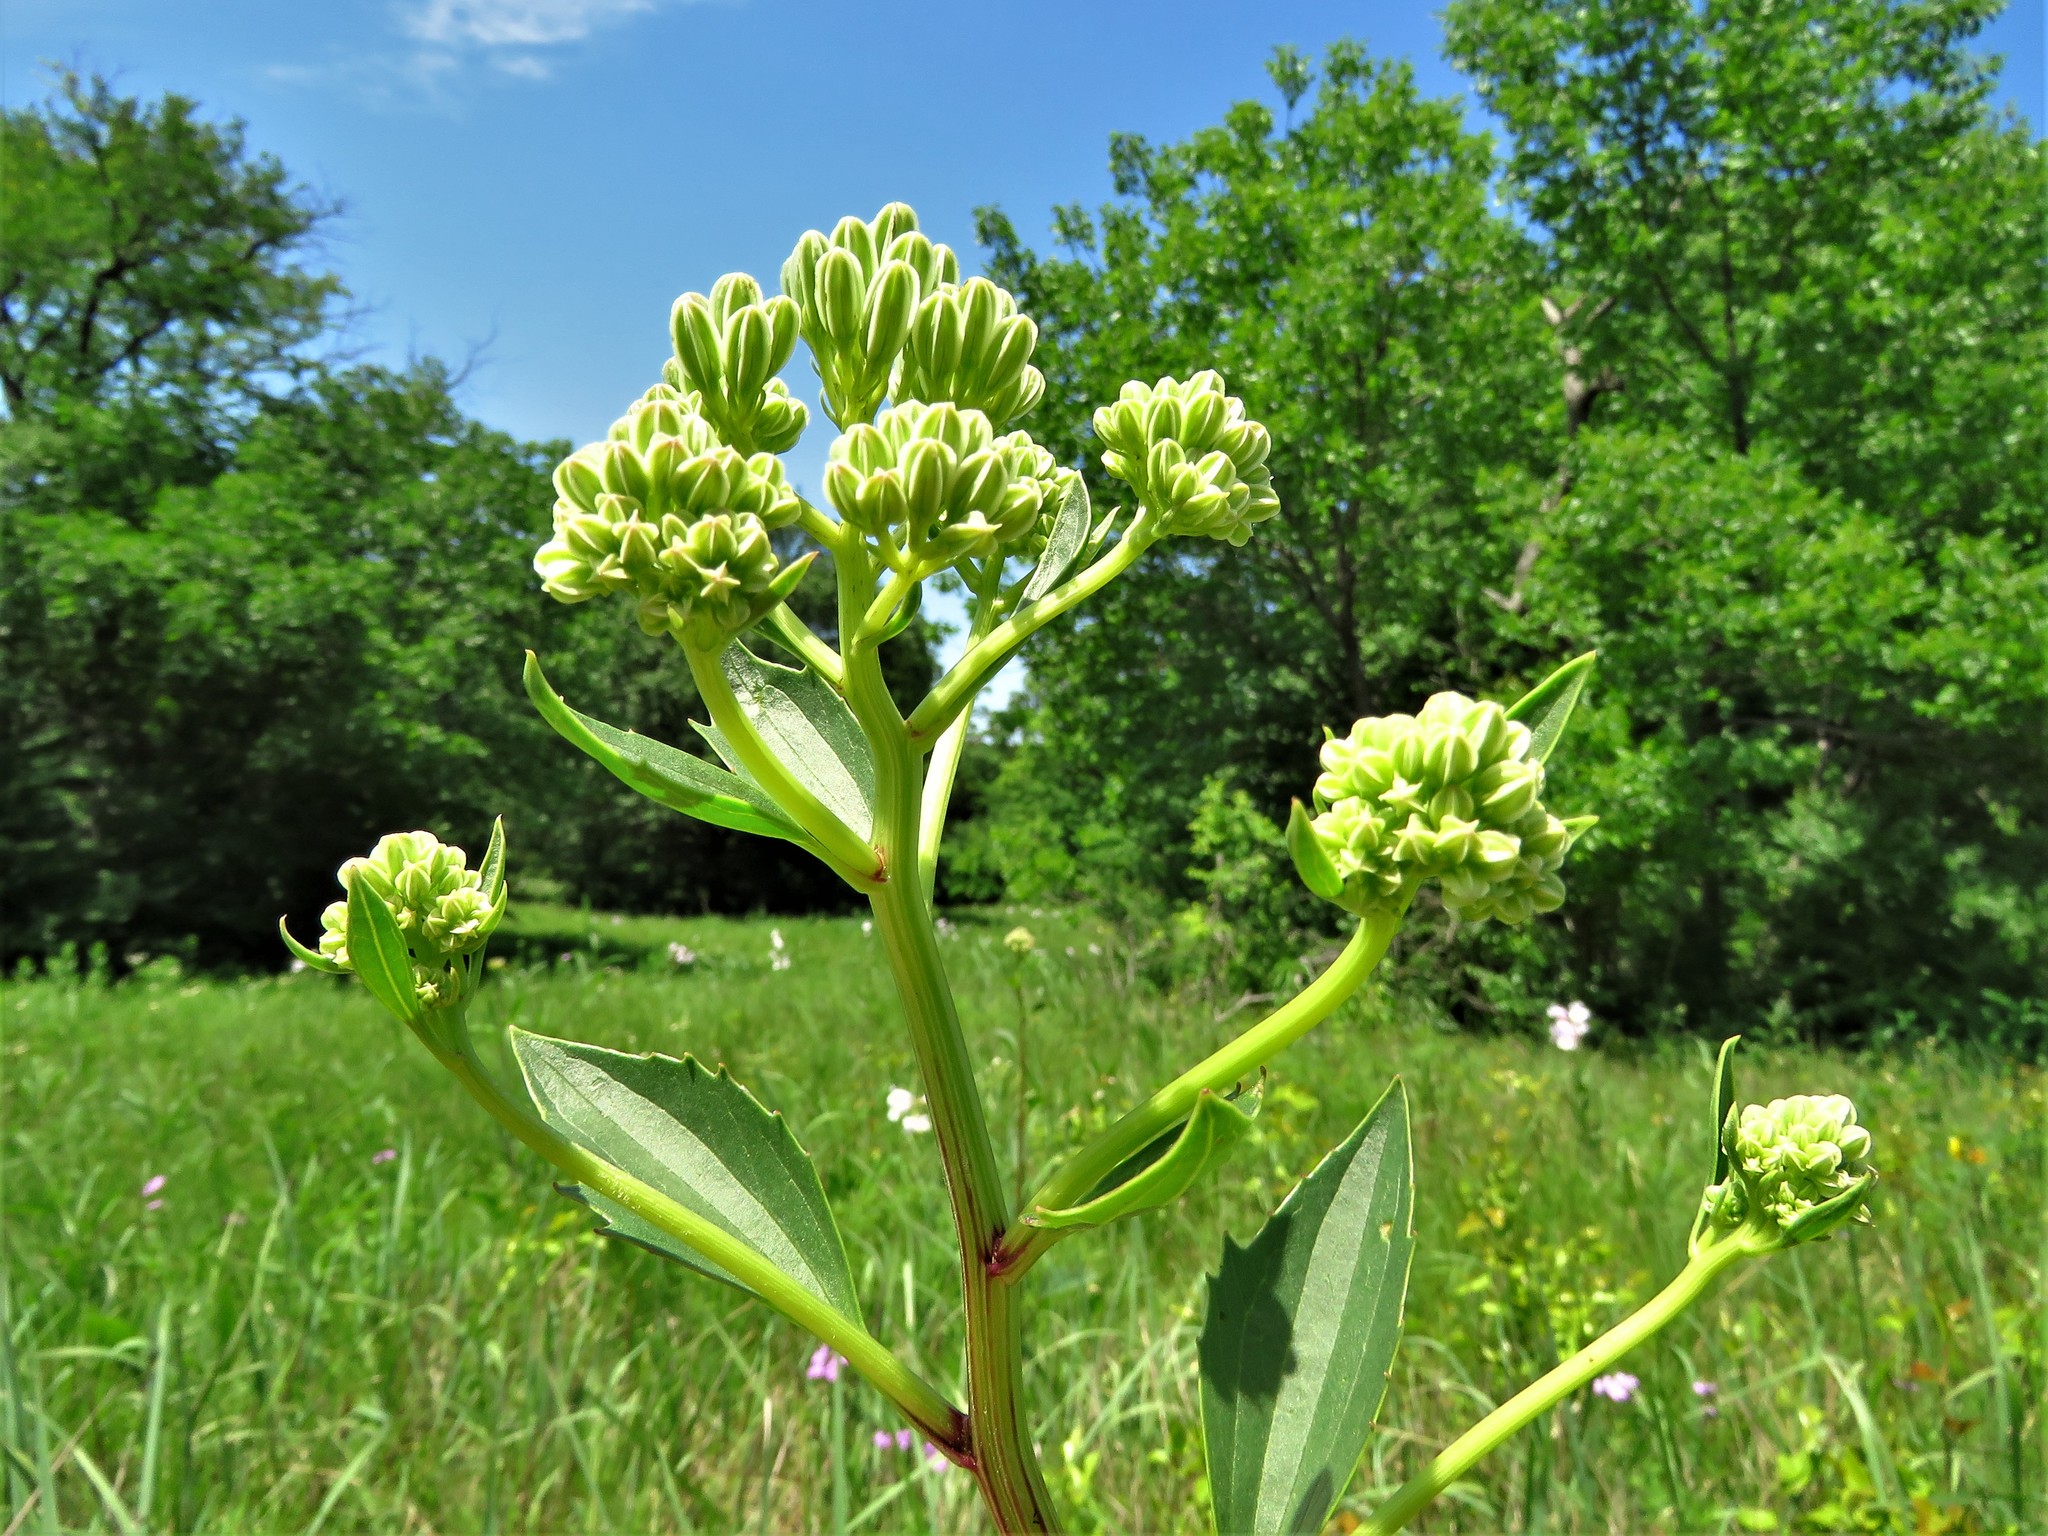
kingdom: Plantae
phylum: Tracheophyta
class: Magnoliopsida
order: Asterales
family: Asteraceae
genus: Arnoglossum
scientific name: Arnoglossum plantagineum
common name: Groove-stemmed indian-plantain
